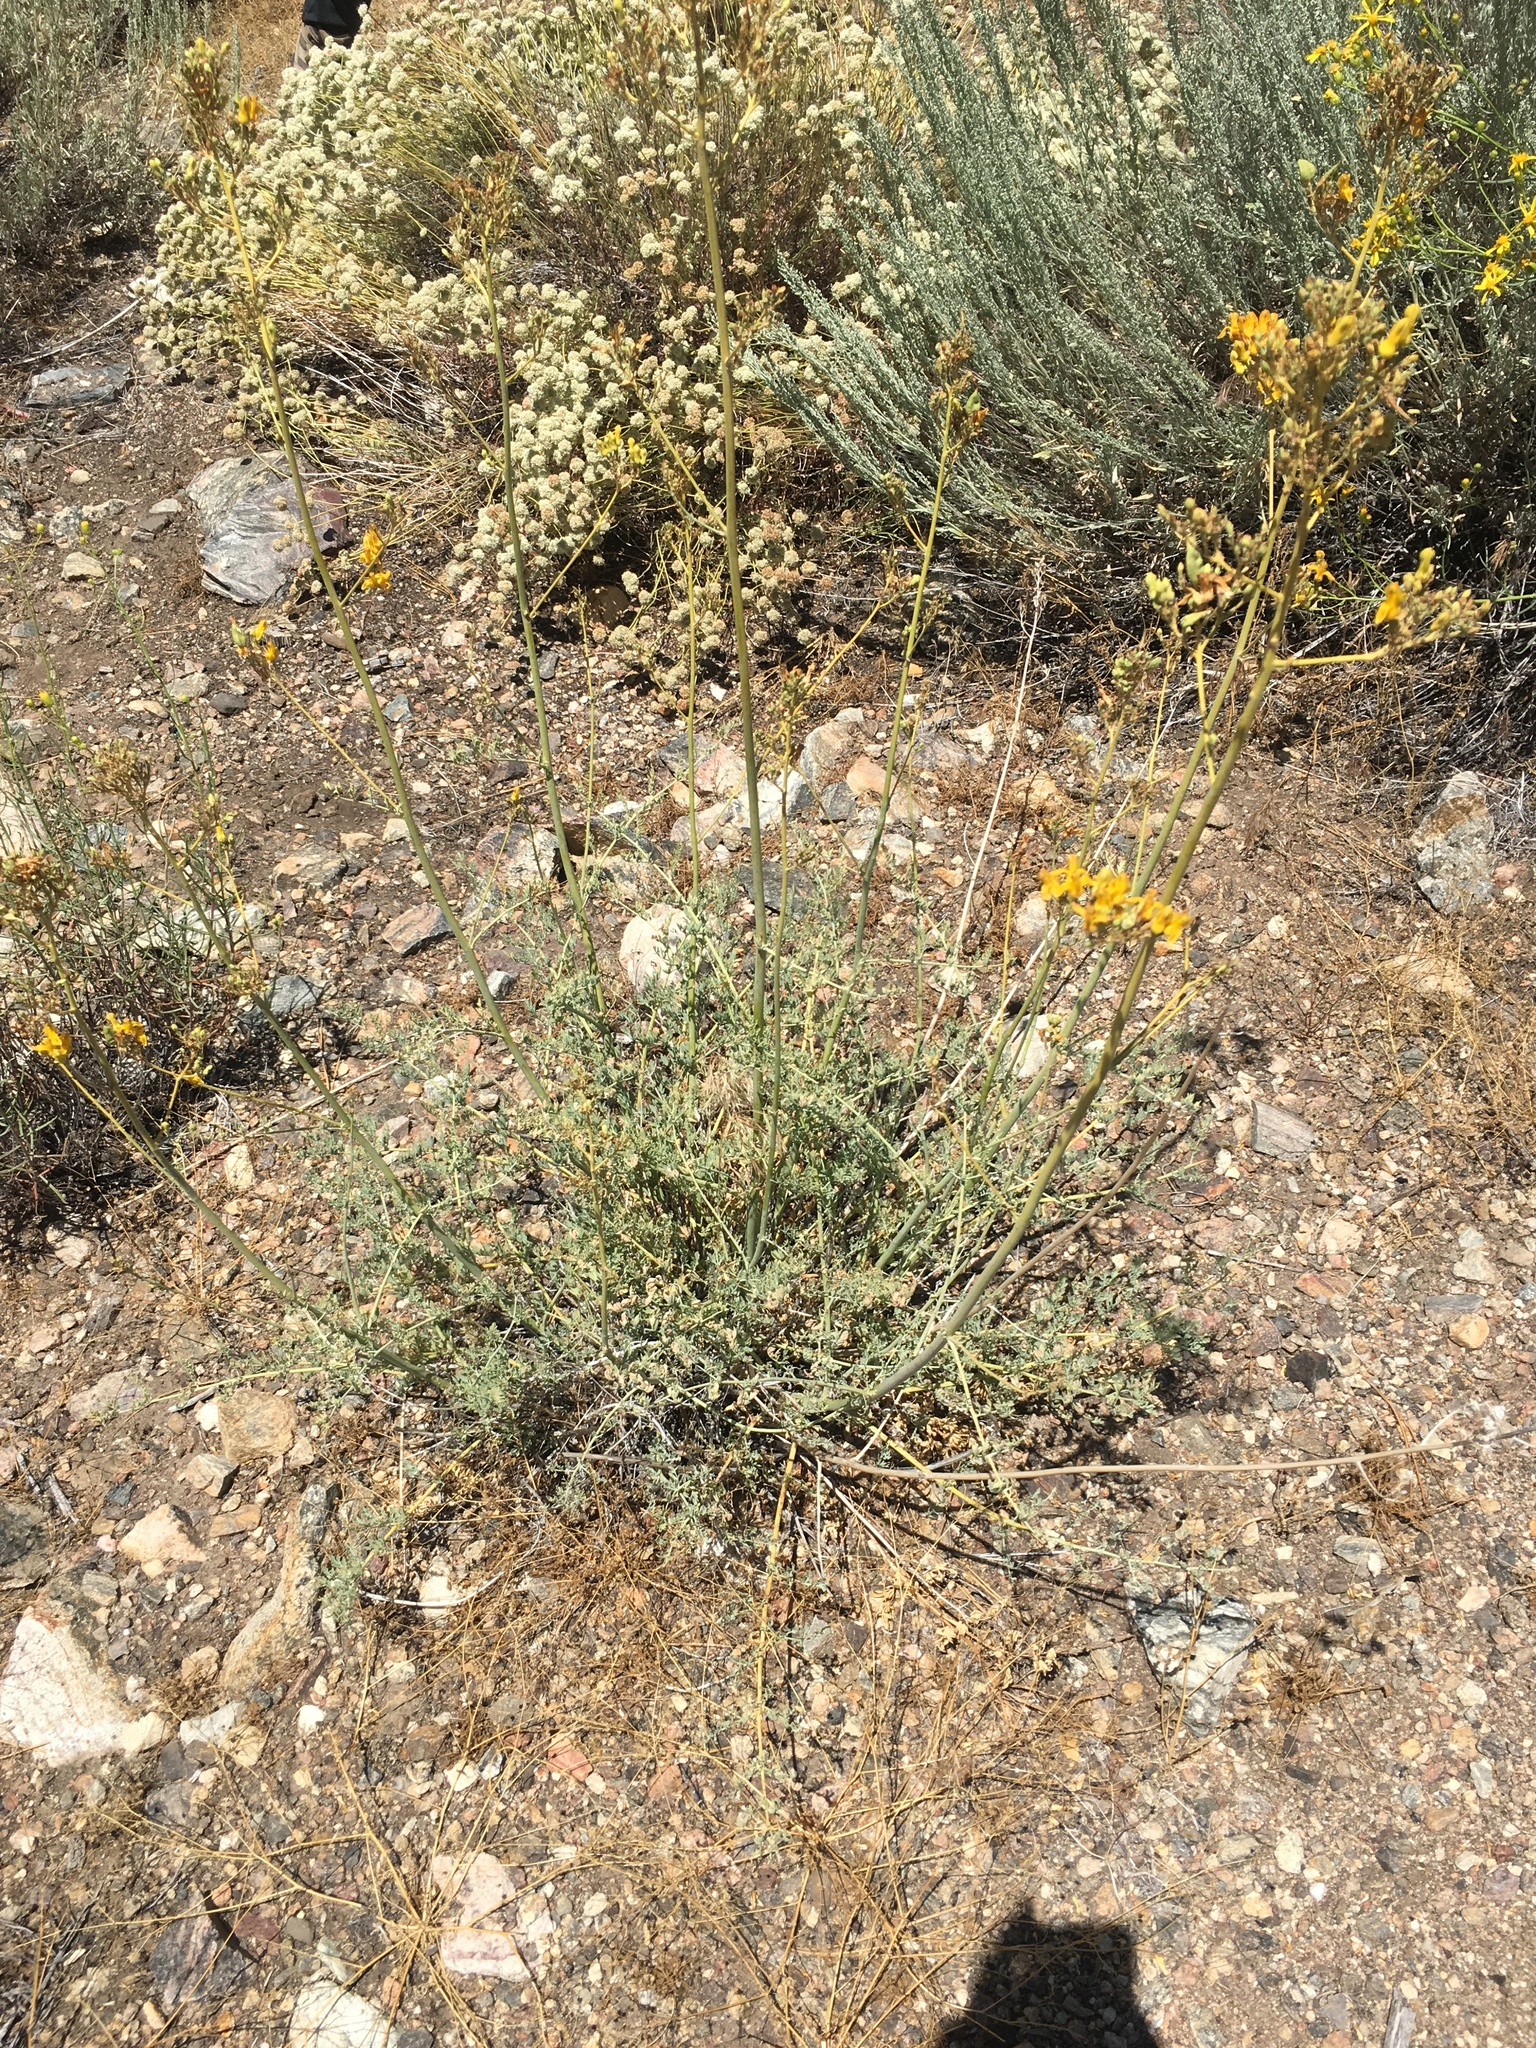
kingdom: Plantae
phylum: Tracheophyta
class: Magnoliopsida
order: Ranunculales
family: Papaveraceae
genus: Ehrendorferia
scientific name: Ehrendorferia chrysantha
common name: Golden eardrops
